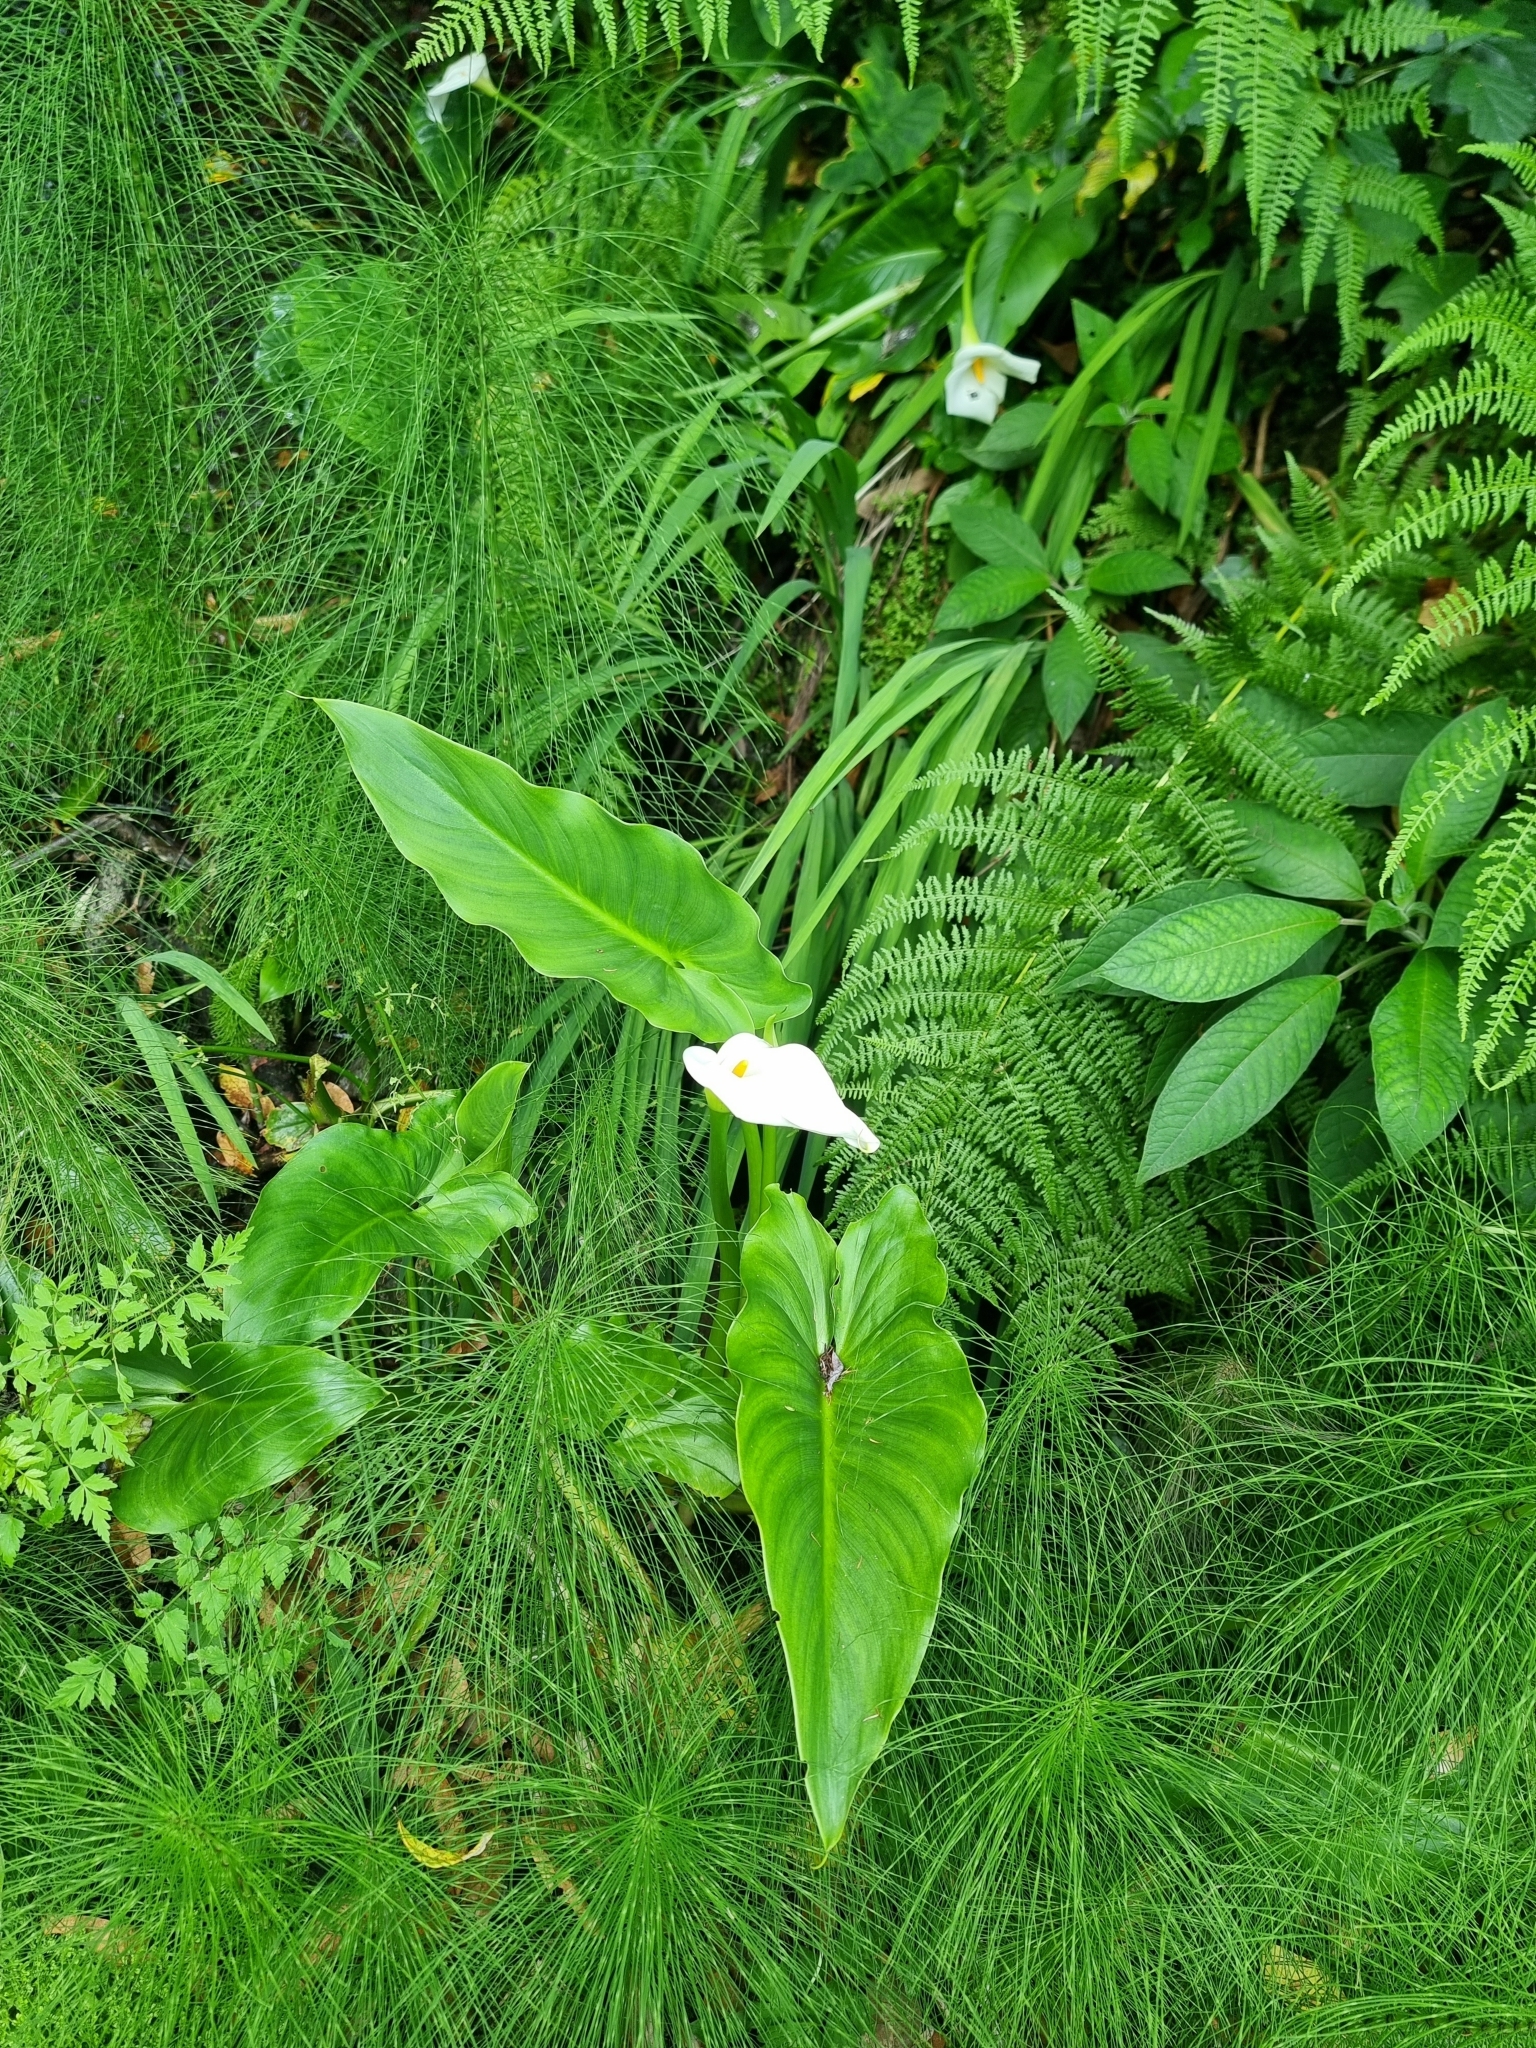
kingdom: Plantae
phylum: Tracheophyta
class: Liliopsida
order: Alismatales
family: Araceae
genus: Zantedeschia
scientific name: Zantedeschia aethiopica
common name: Altar-lily
